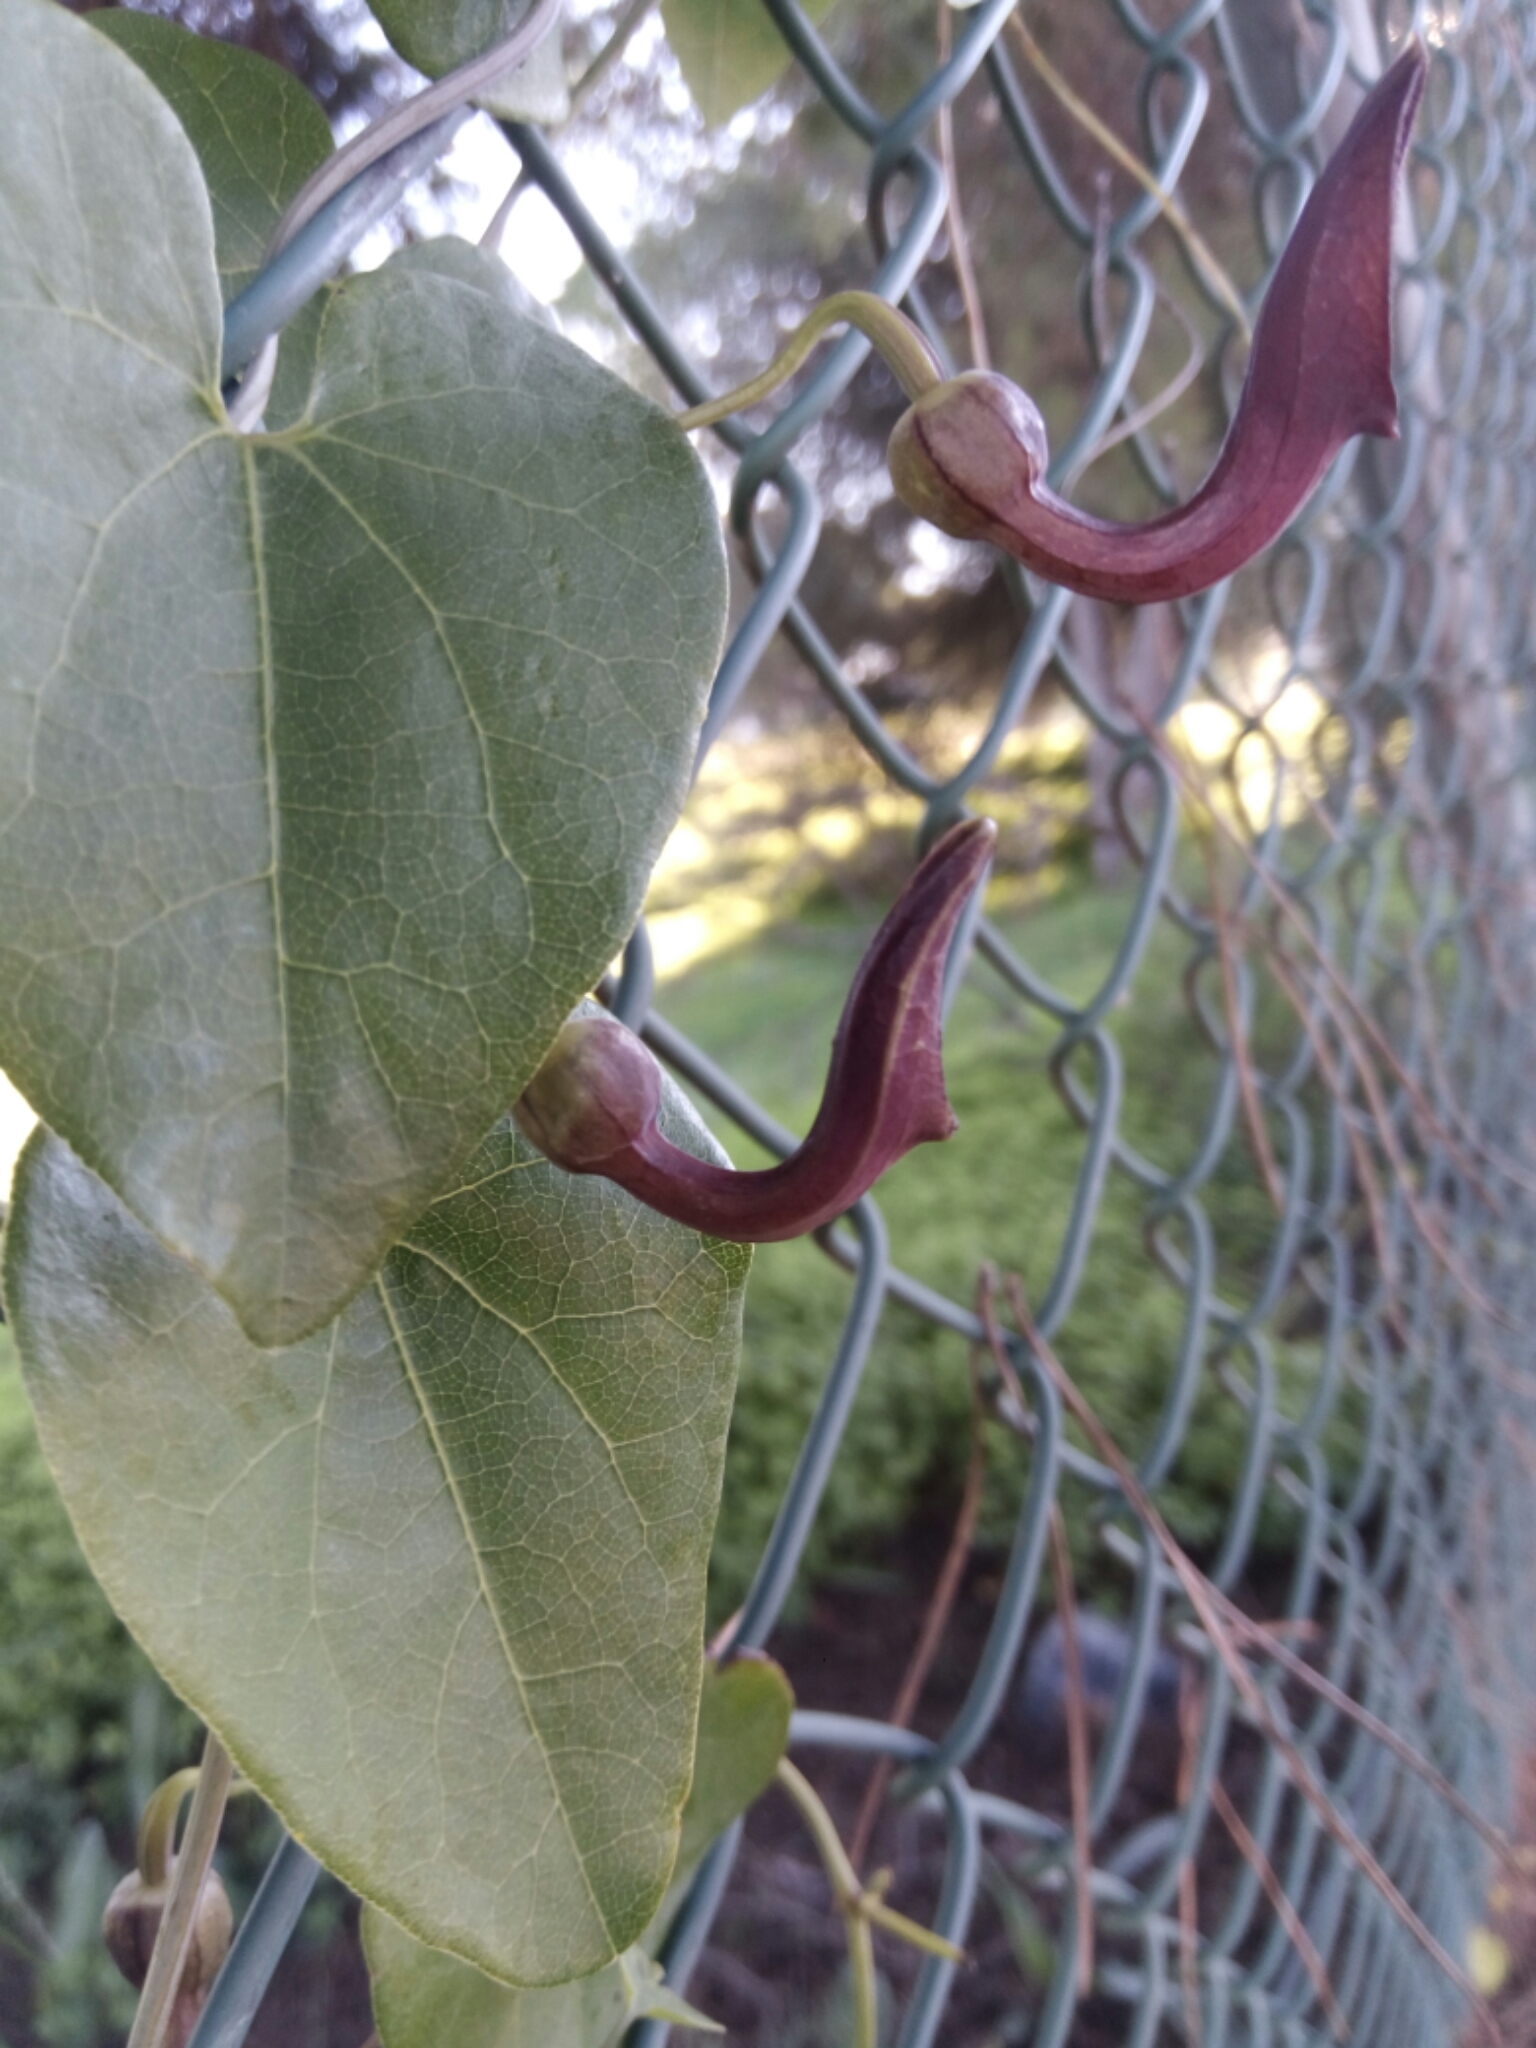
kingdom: Plantae
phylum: Tracheophyta
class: Magnoliopsida
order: Piperales
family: Aristolochiaceae
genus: Aristolochia
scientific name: Aristolochia baetica
